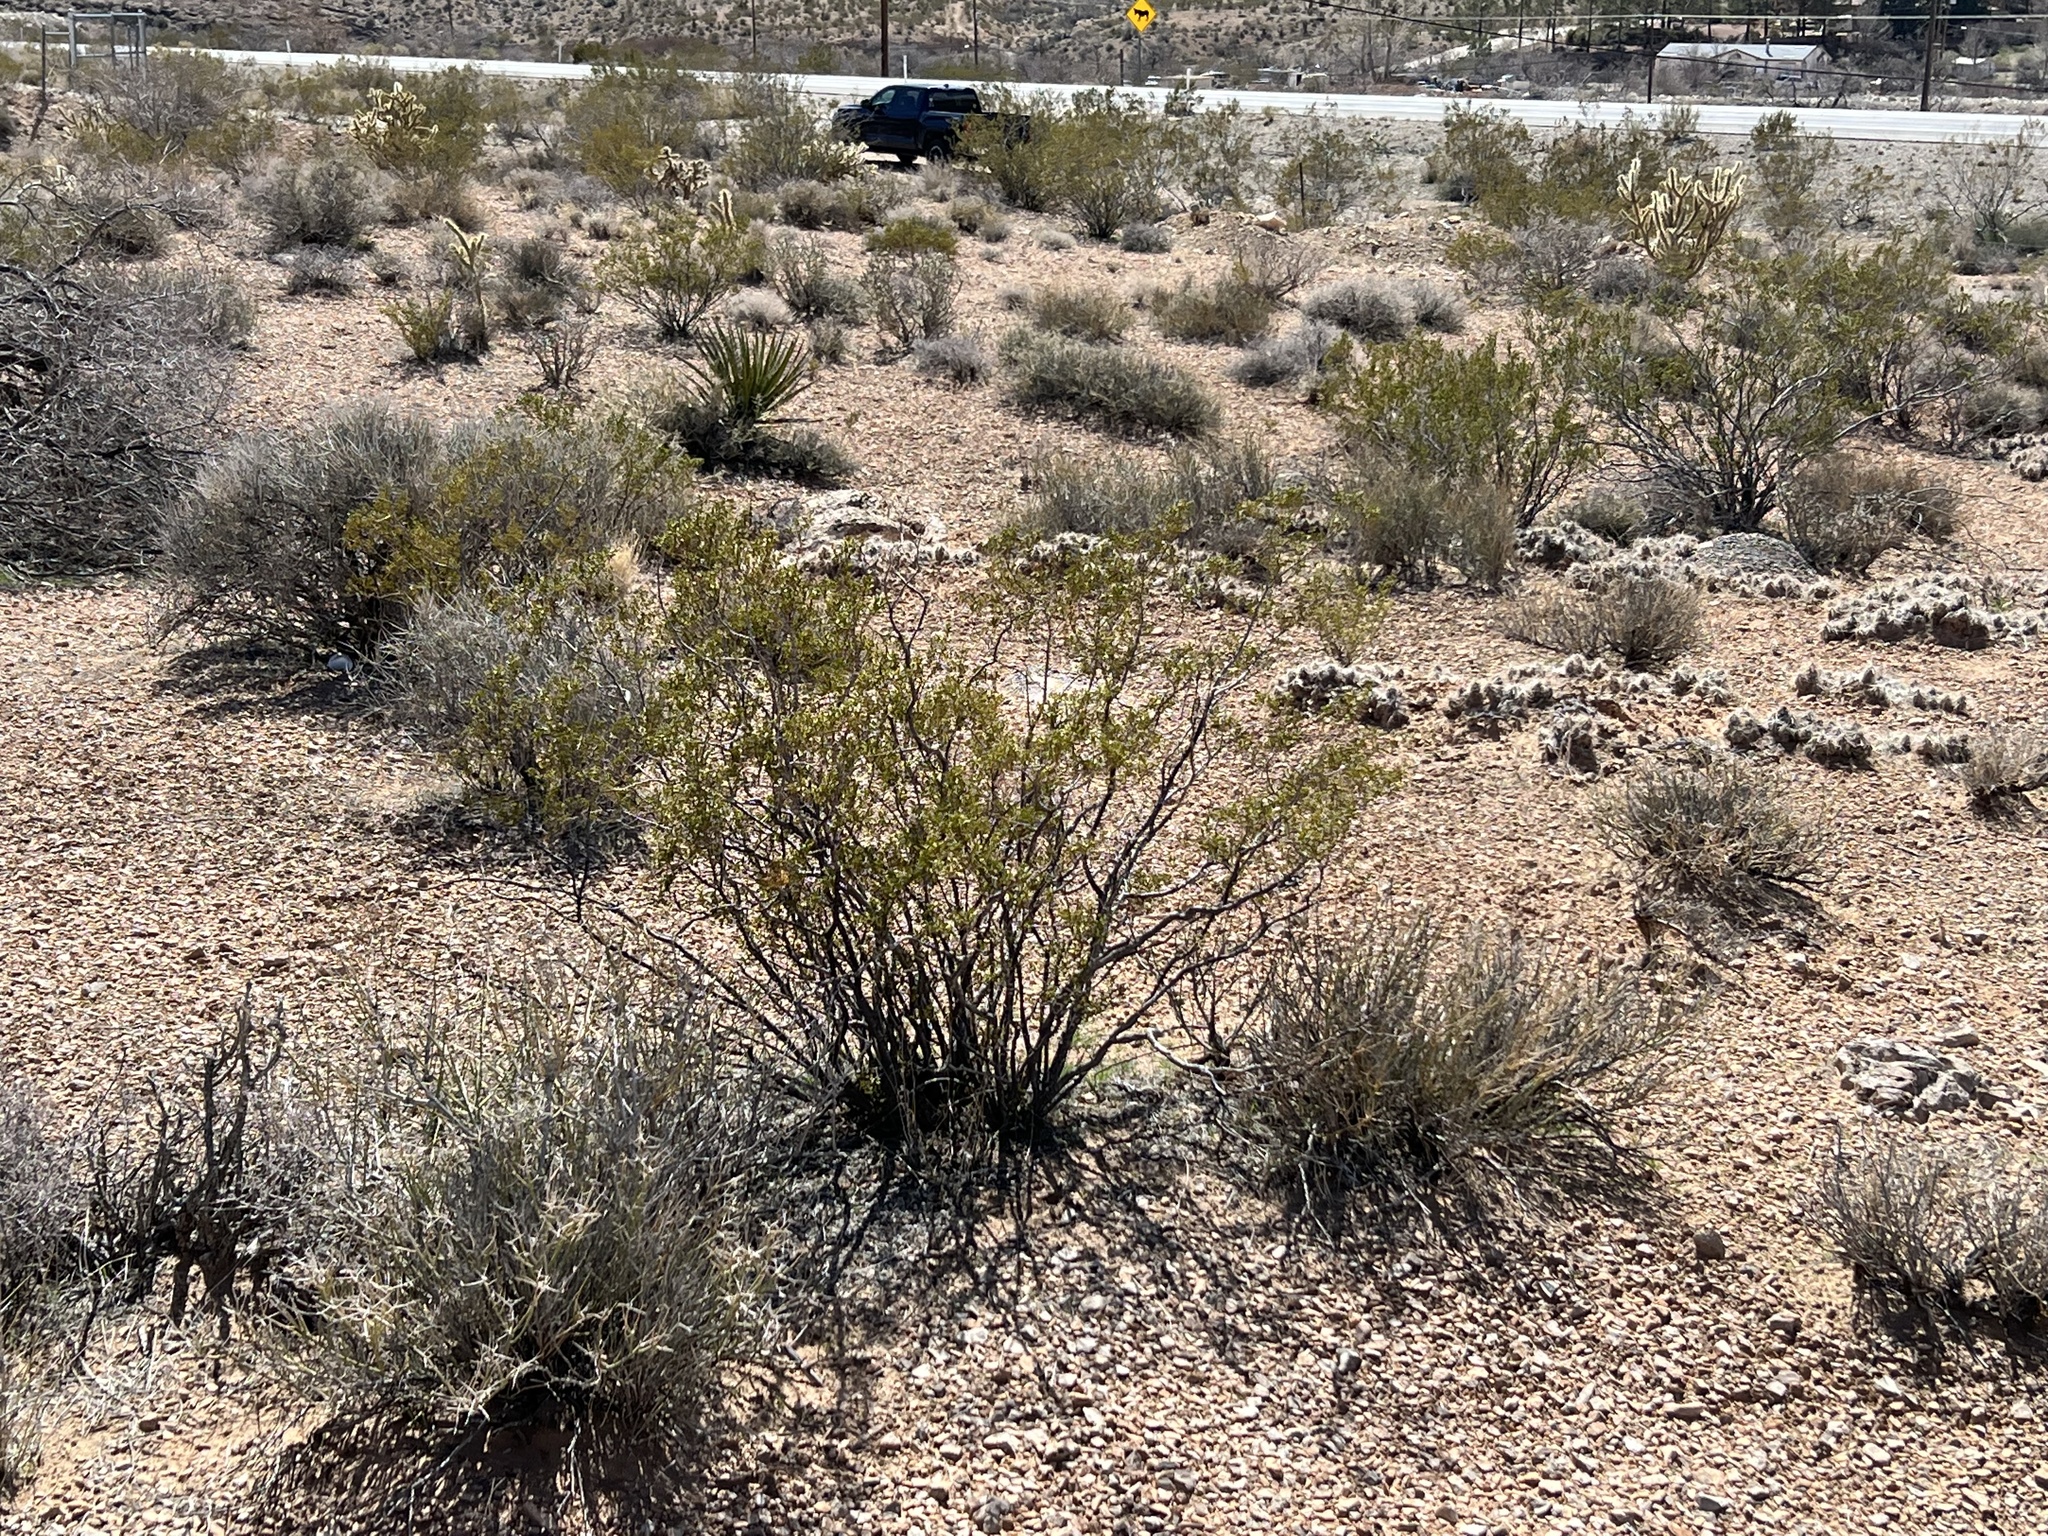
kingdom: Plantae
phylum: Tracheophyta
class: Magnoliopsida
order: Zygophyllales
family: Zygophyllaceae
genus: Larrea
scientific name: Larrea tridentata
